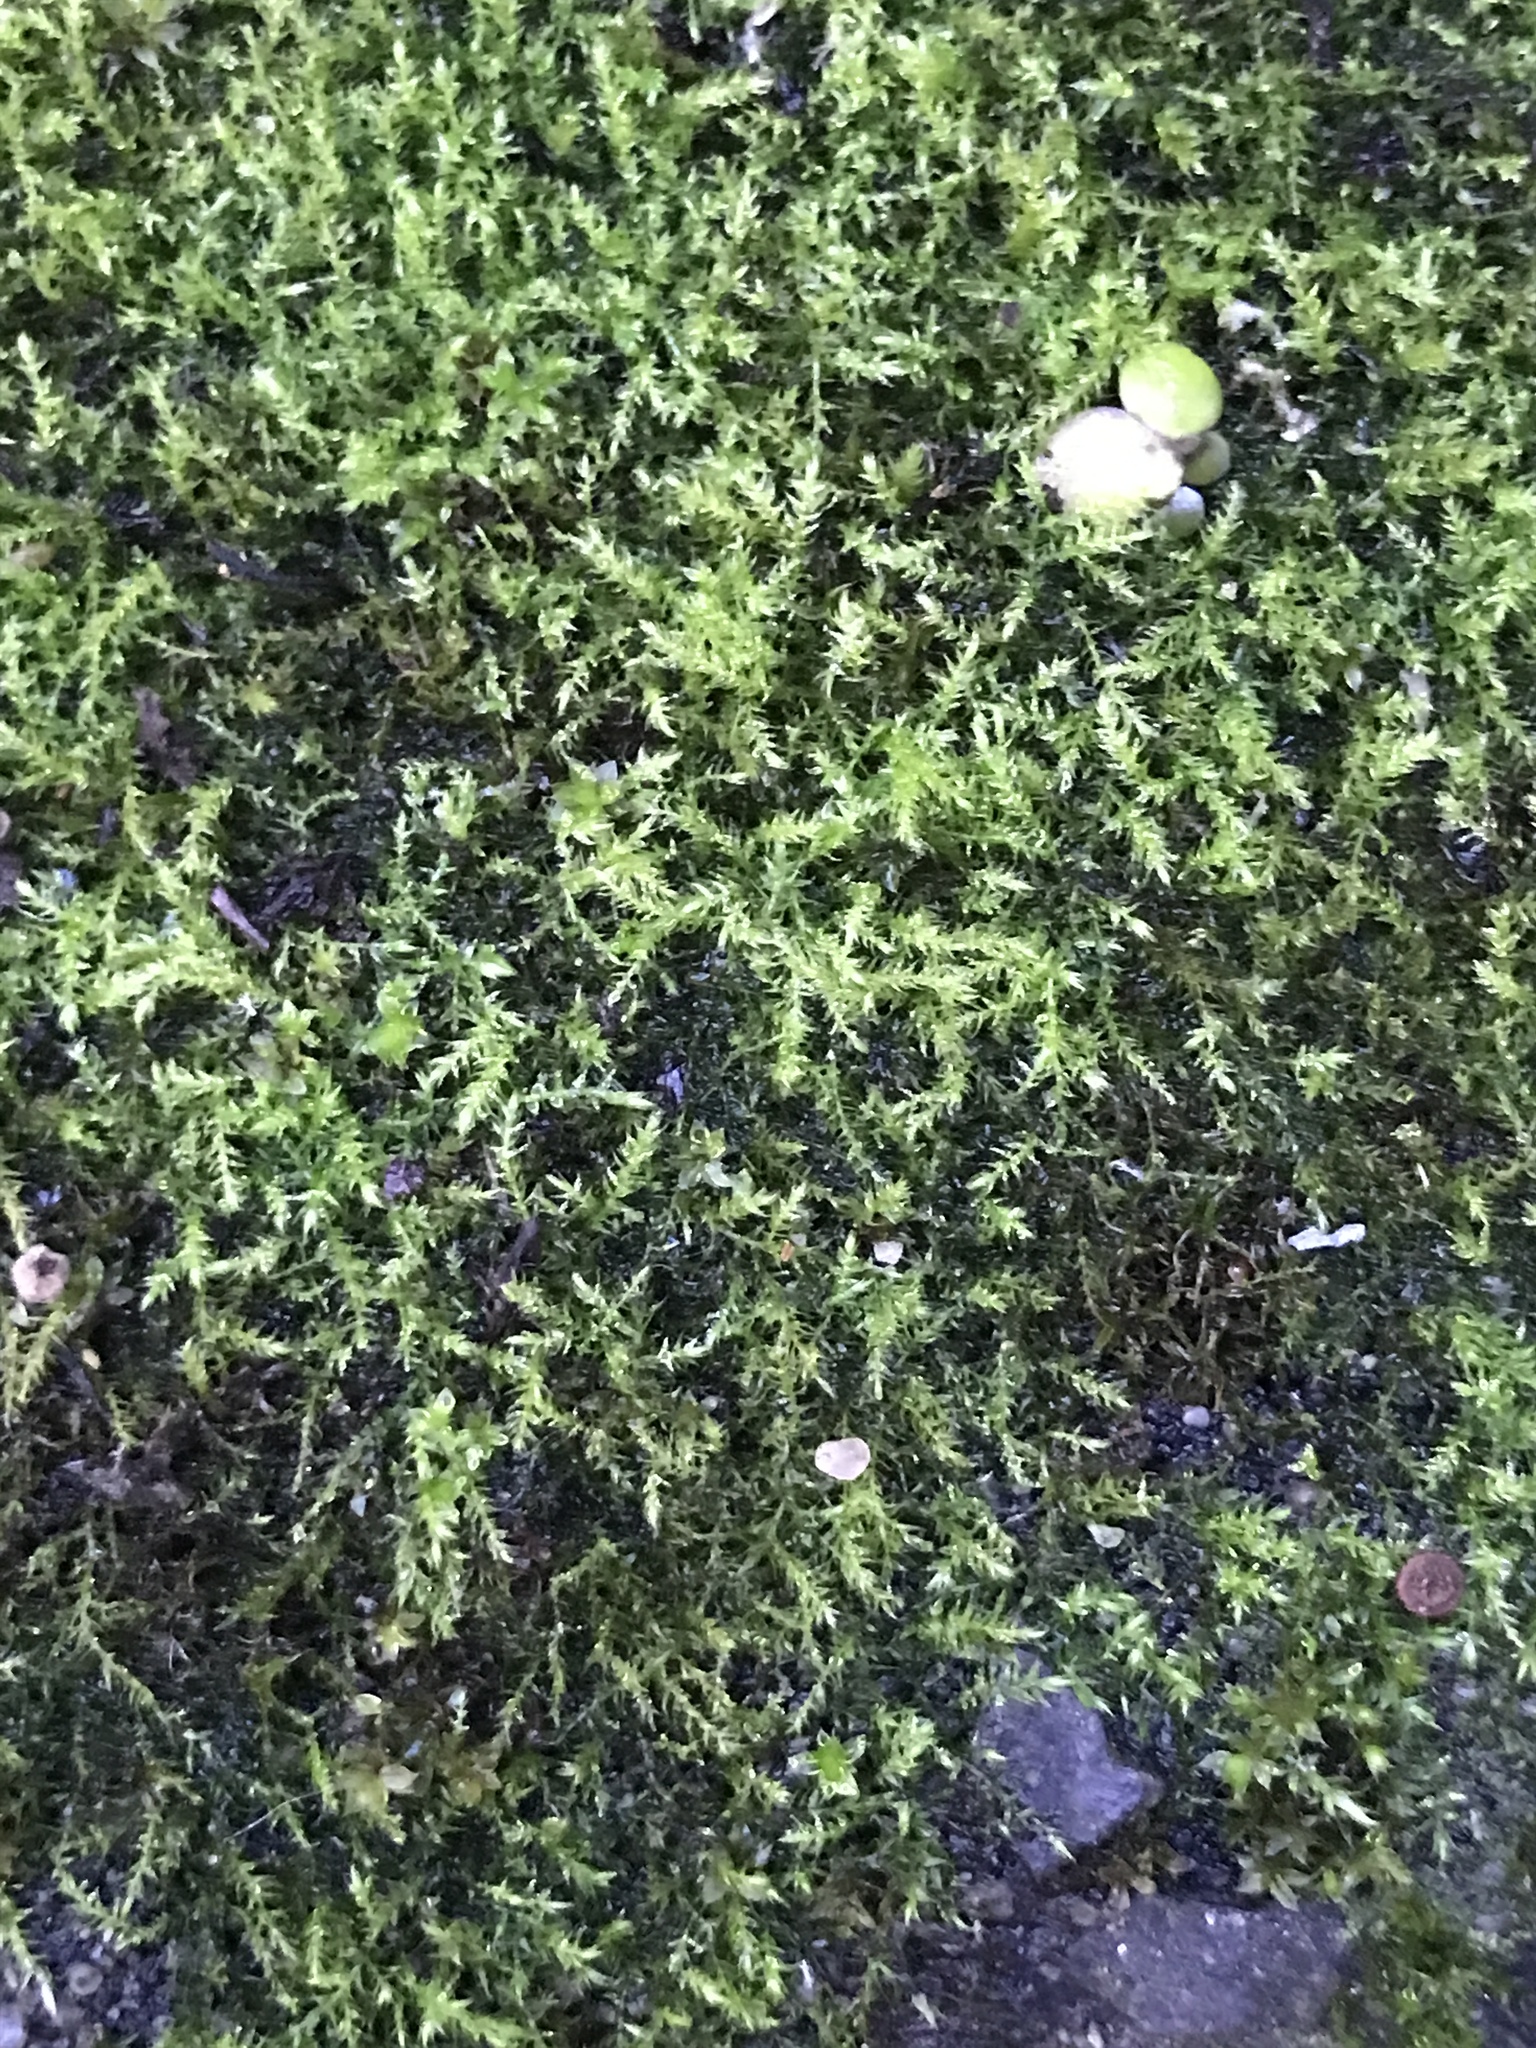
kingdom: Plantae
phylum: Bryophyta
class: Bryopsida
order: Hypnales
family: Brachytheciaceae
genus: Oxyrrhynchium
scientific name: Oxyrrhynchium hians
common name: Spreading beaked moss
